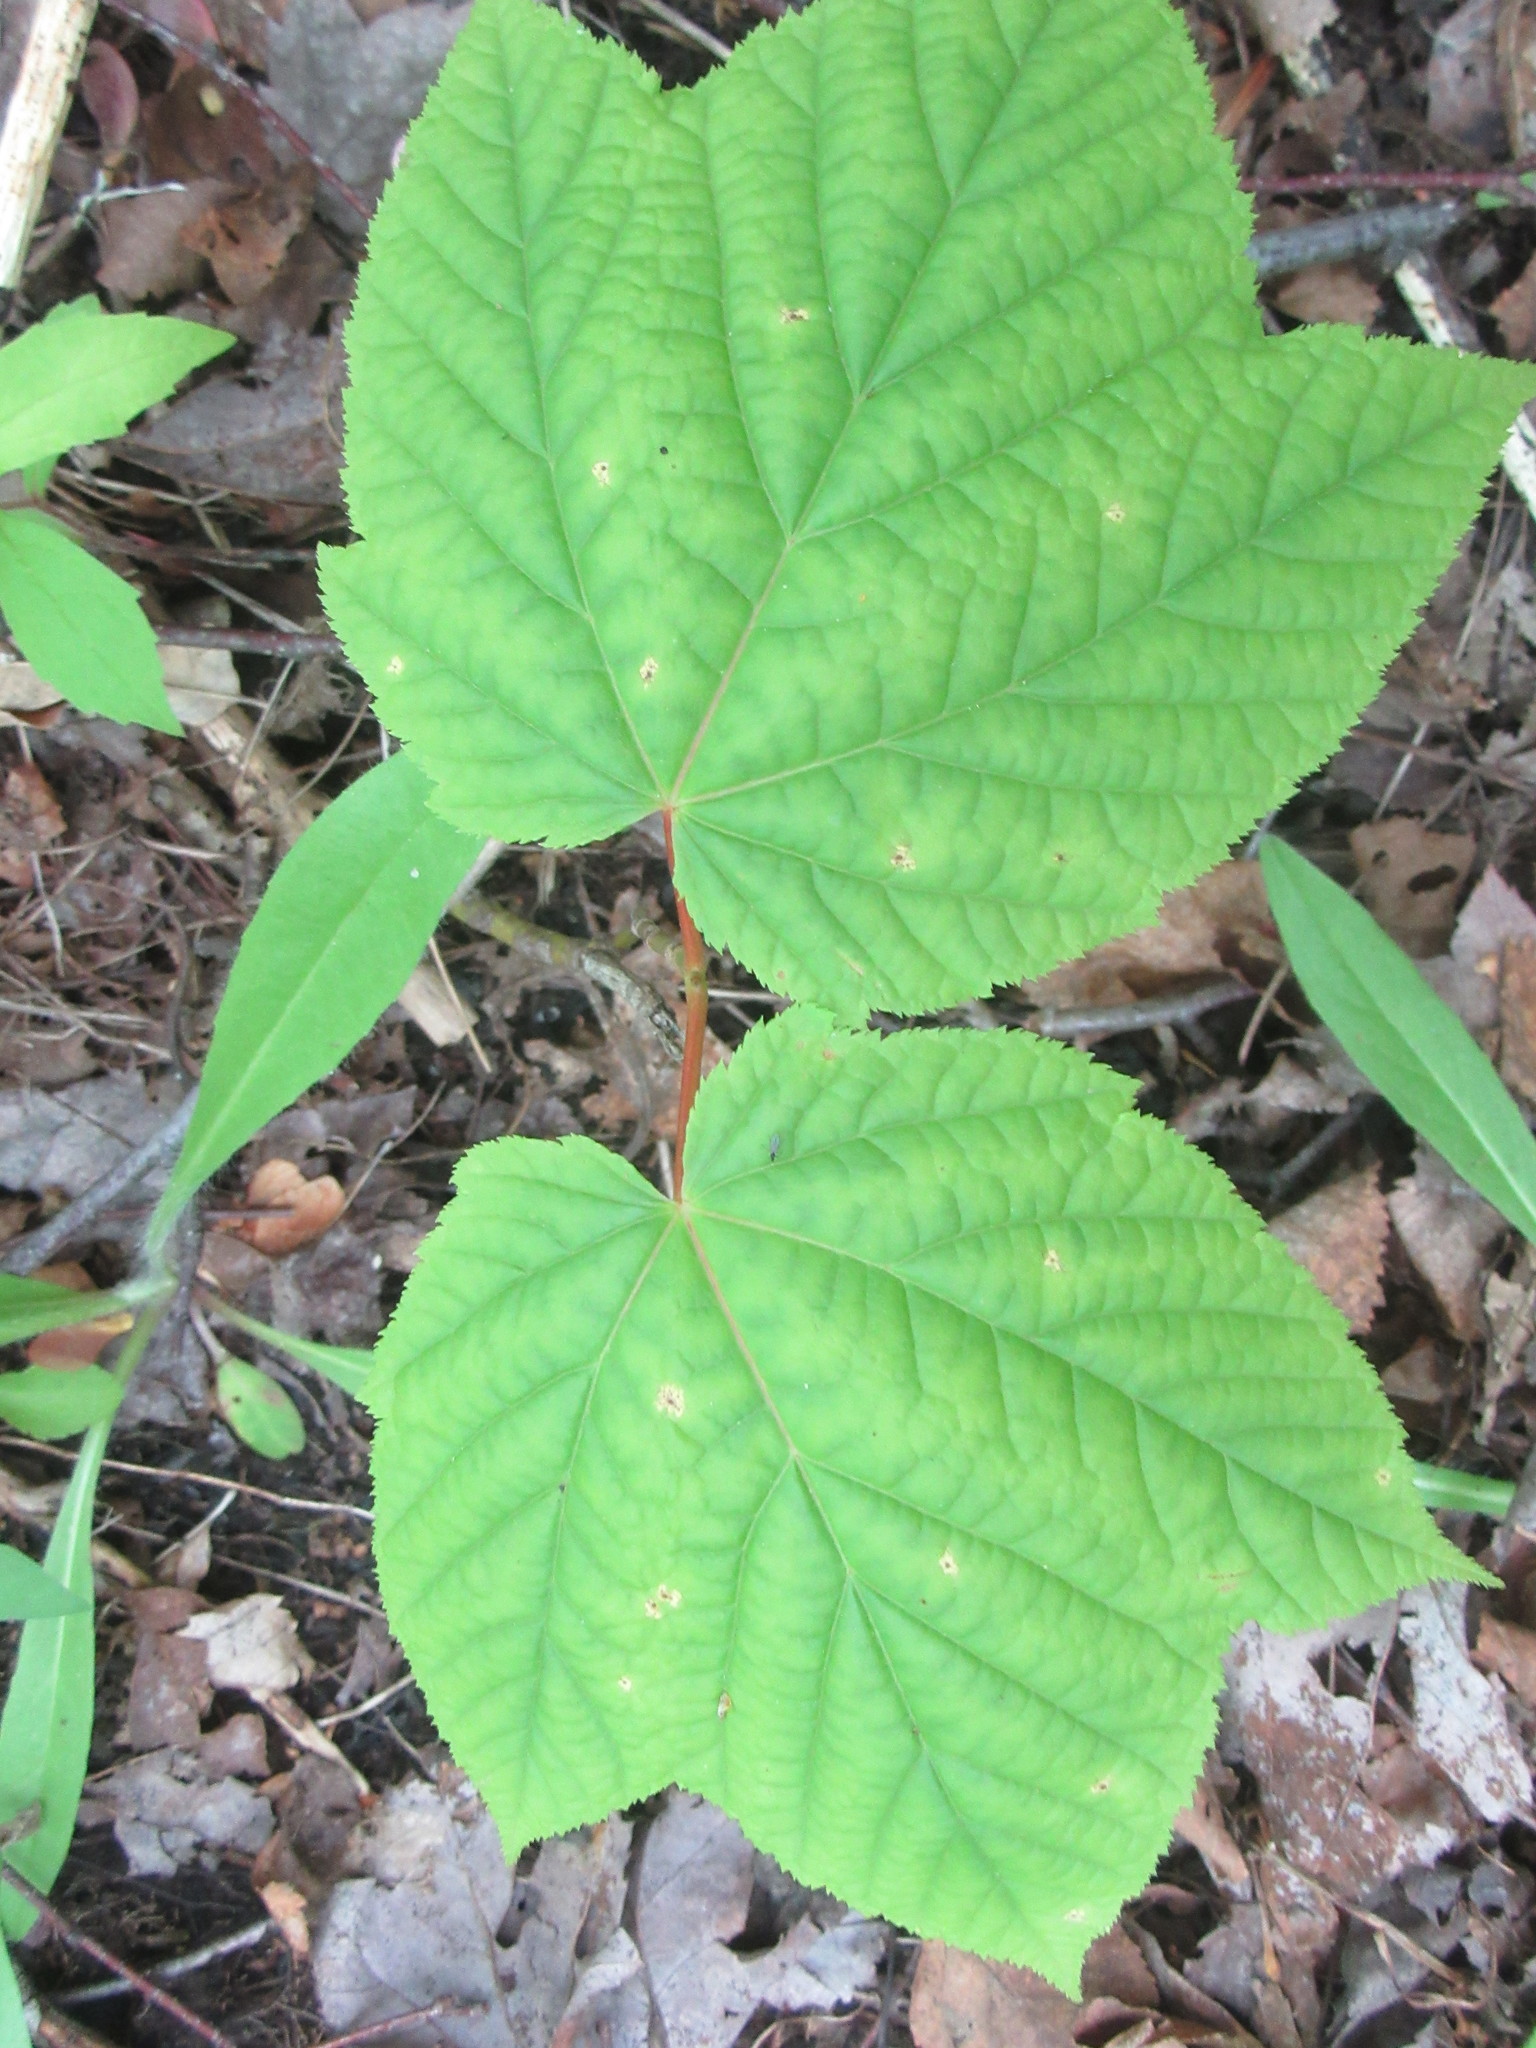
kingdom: Plantae
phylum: Tracheophyta
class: Magnoliopsida
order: Sapindales
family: Sapindaceae
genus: Acer
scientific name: Acer pensylvanicum
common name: Moosewood
